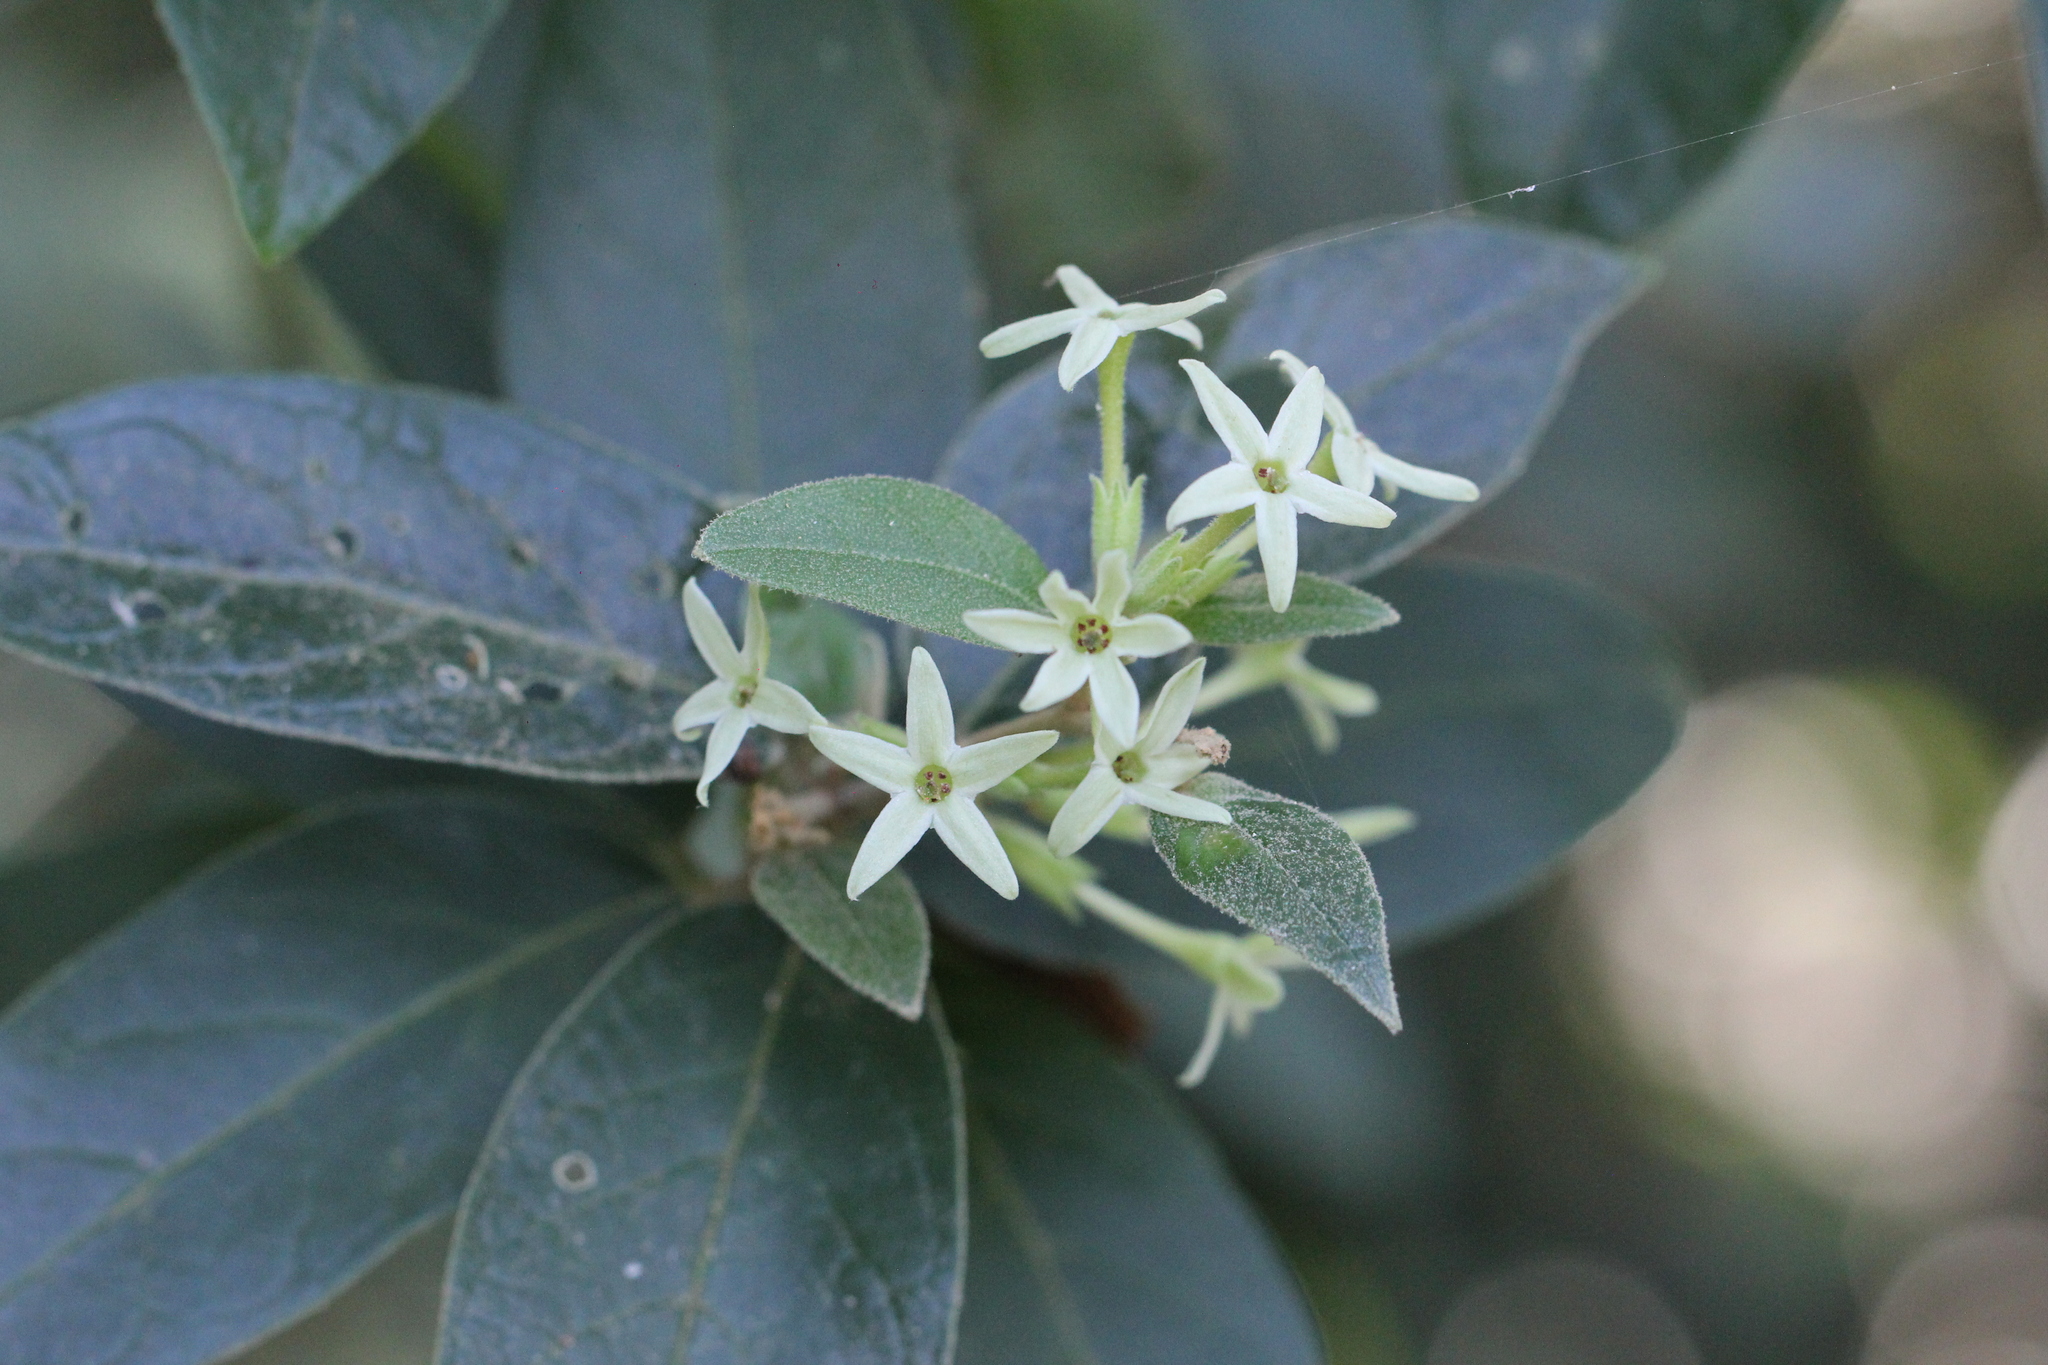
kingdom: Plantae
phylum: Tracheophyta
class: Magnoliopsida
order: Solanales
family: Solanaceae
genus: Cestrum
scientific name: Cestrum strigillatum
